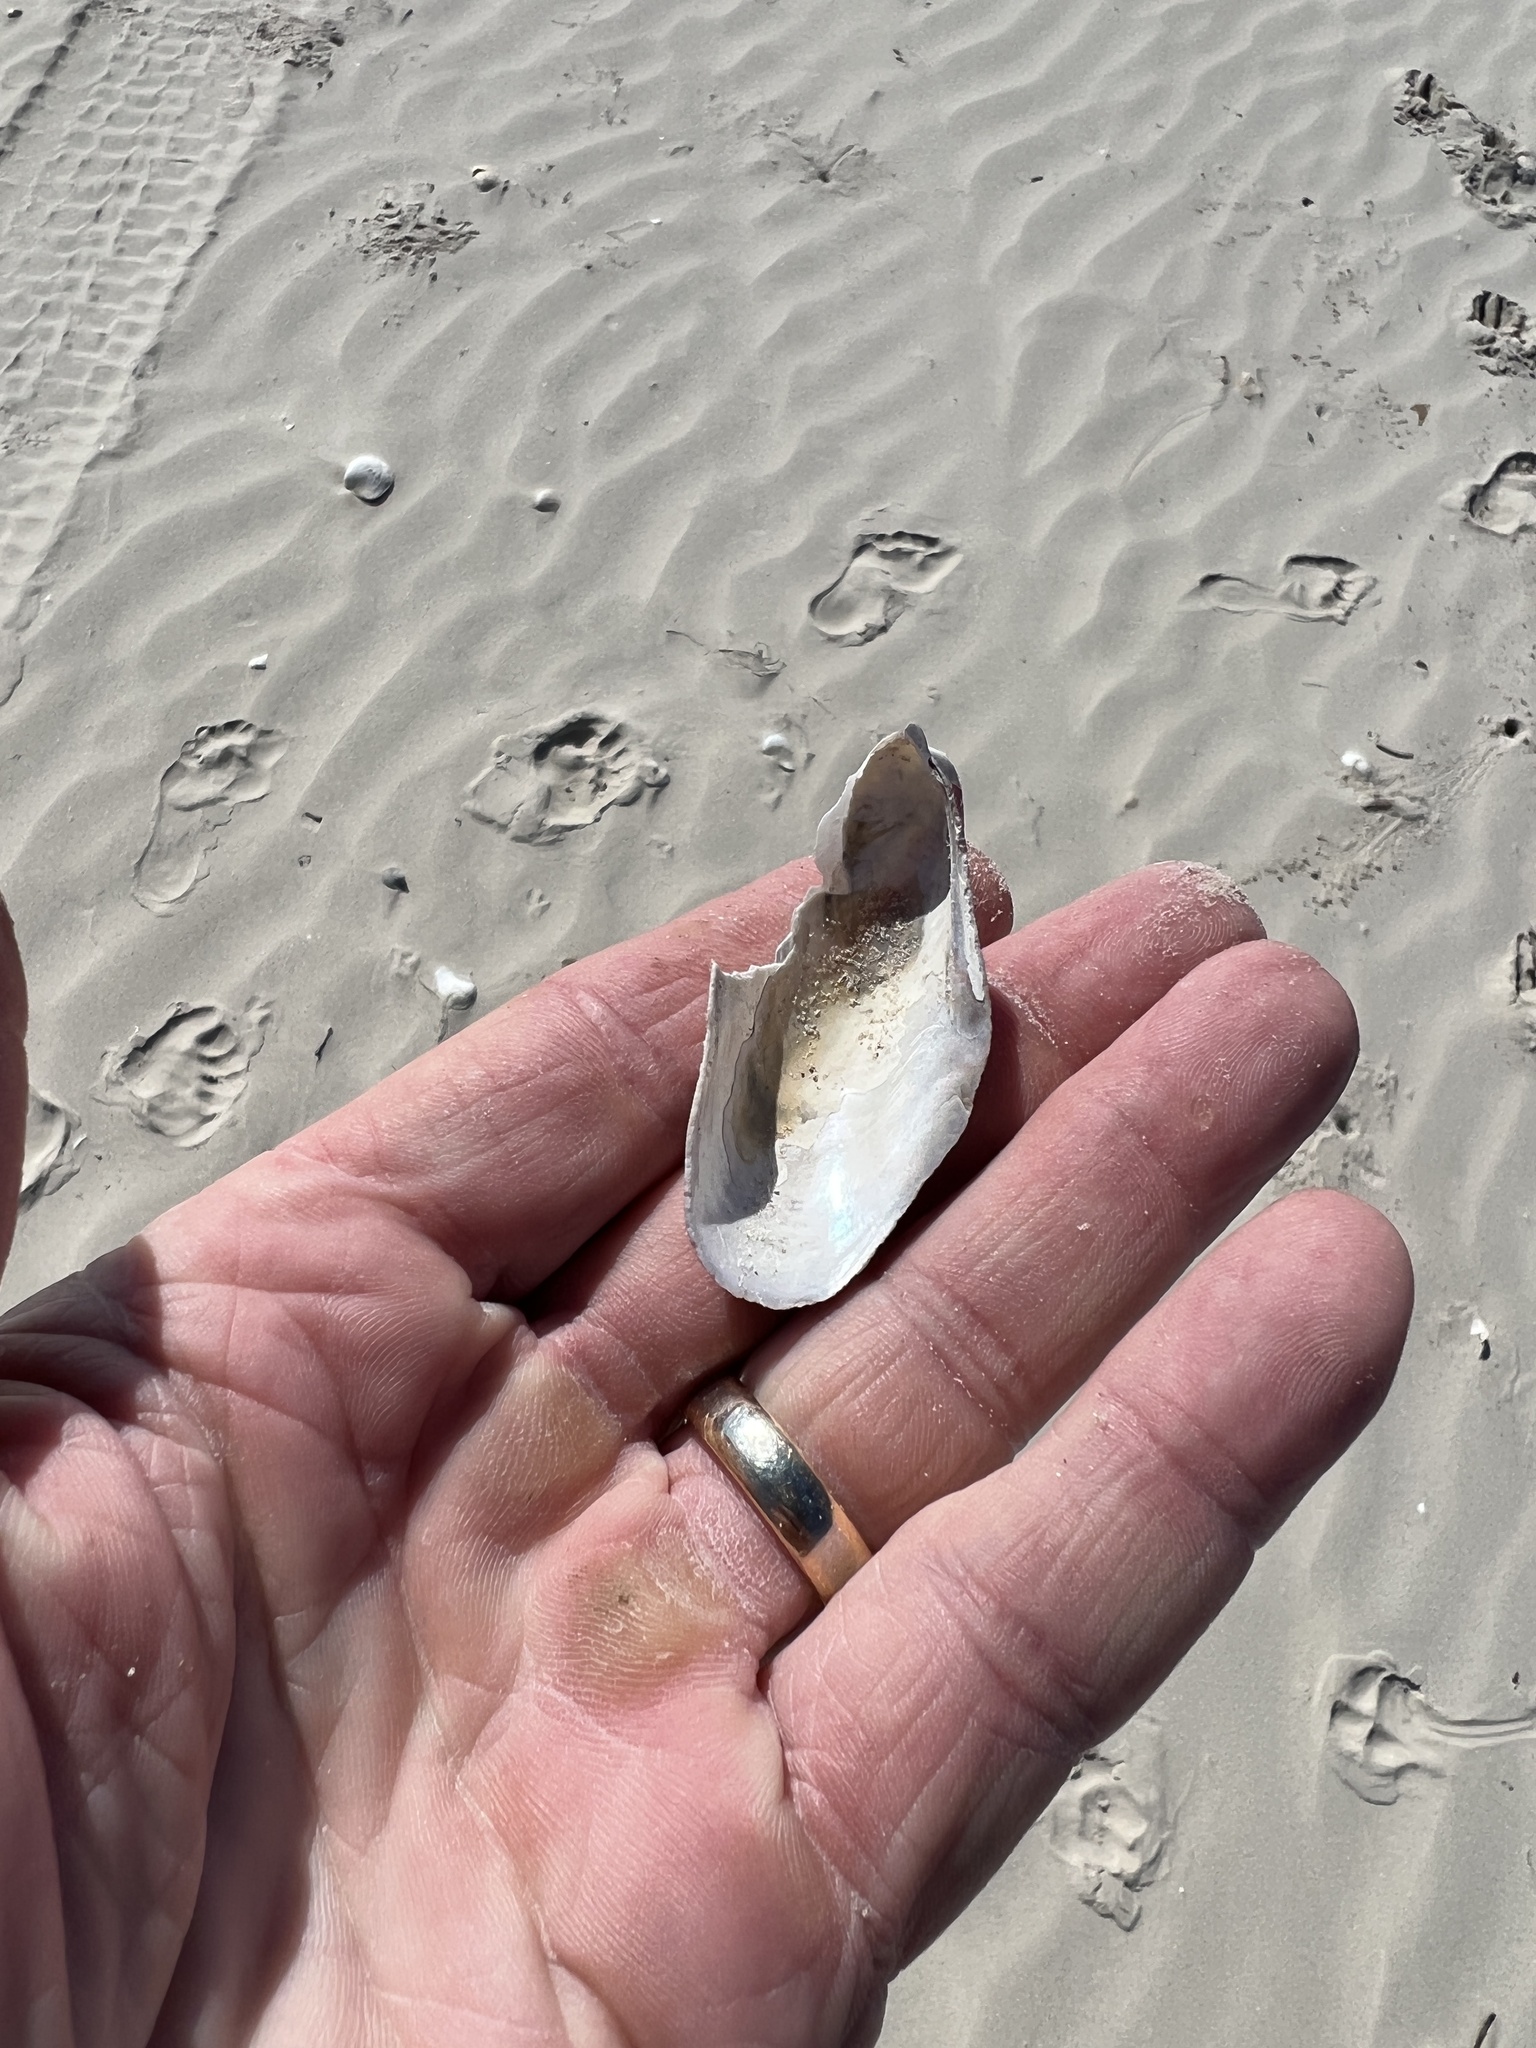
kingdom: Animalia
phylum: Mollusca
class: Bivalvia
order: Mytilida
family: Mytilidae
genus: Modiolus
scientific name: Modiolus americanus
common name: Tulip mussel
